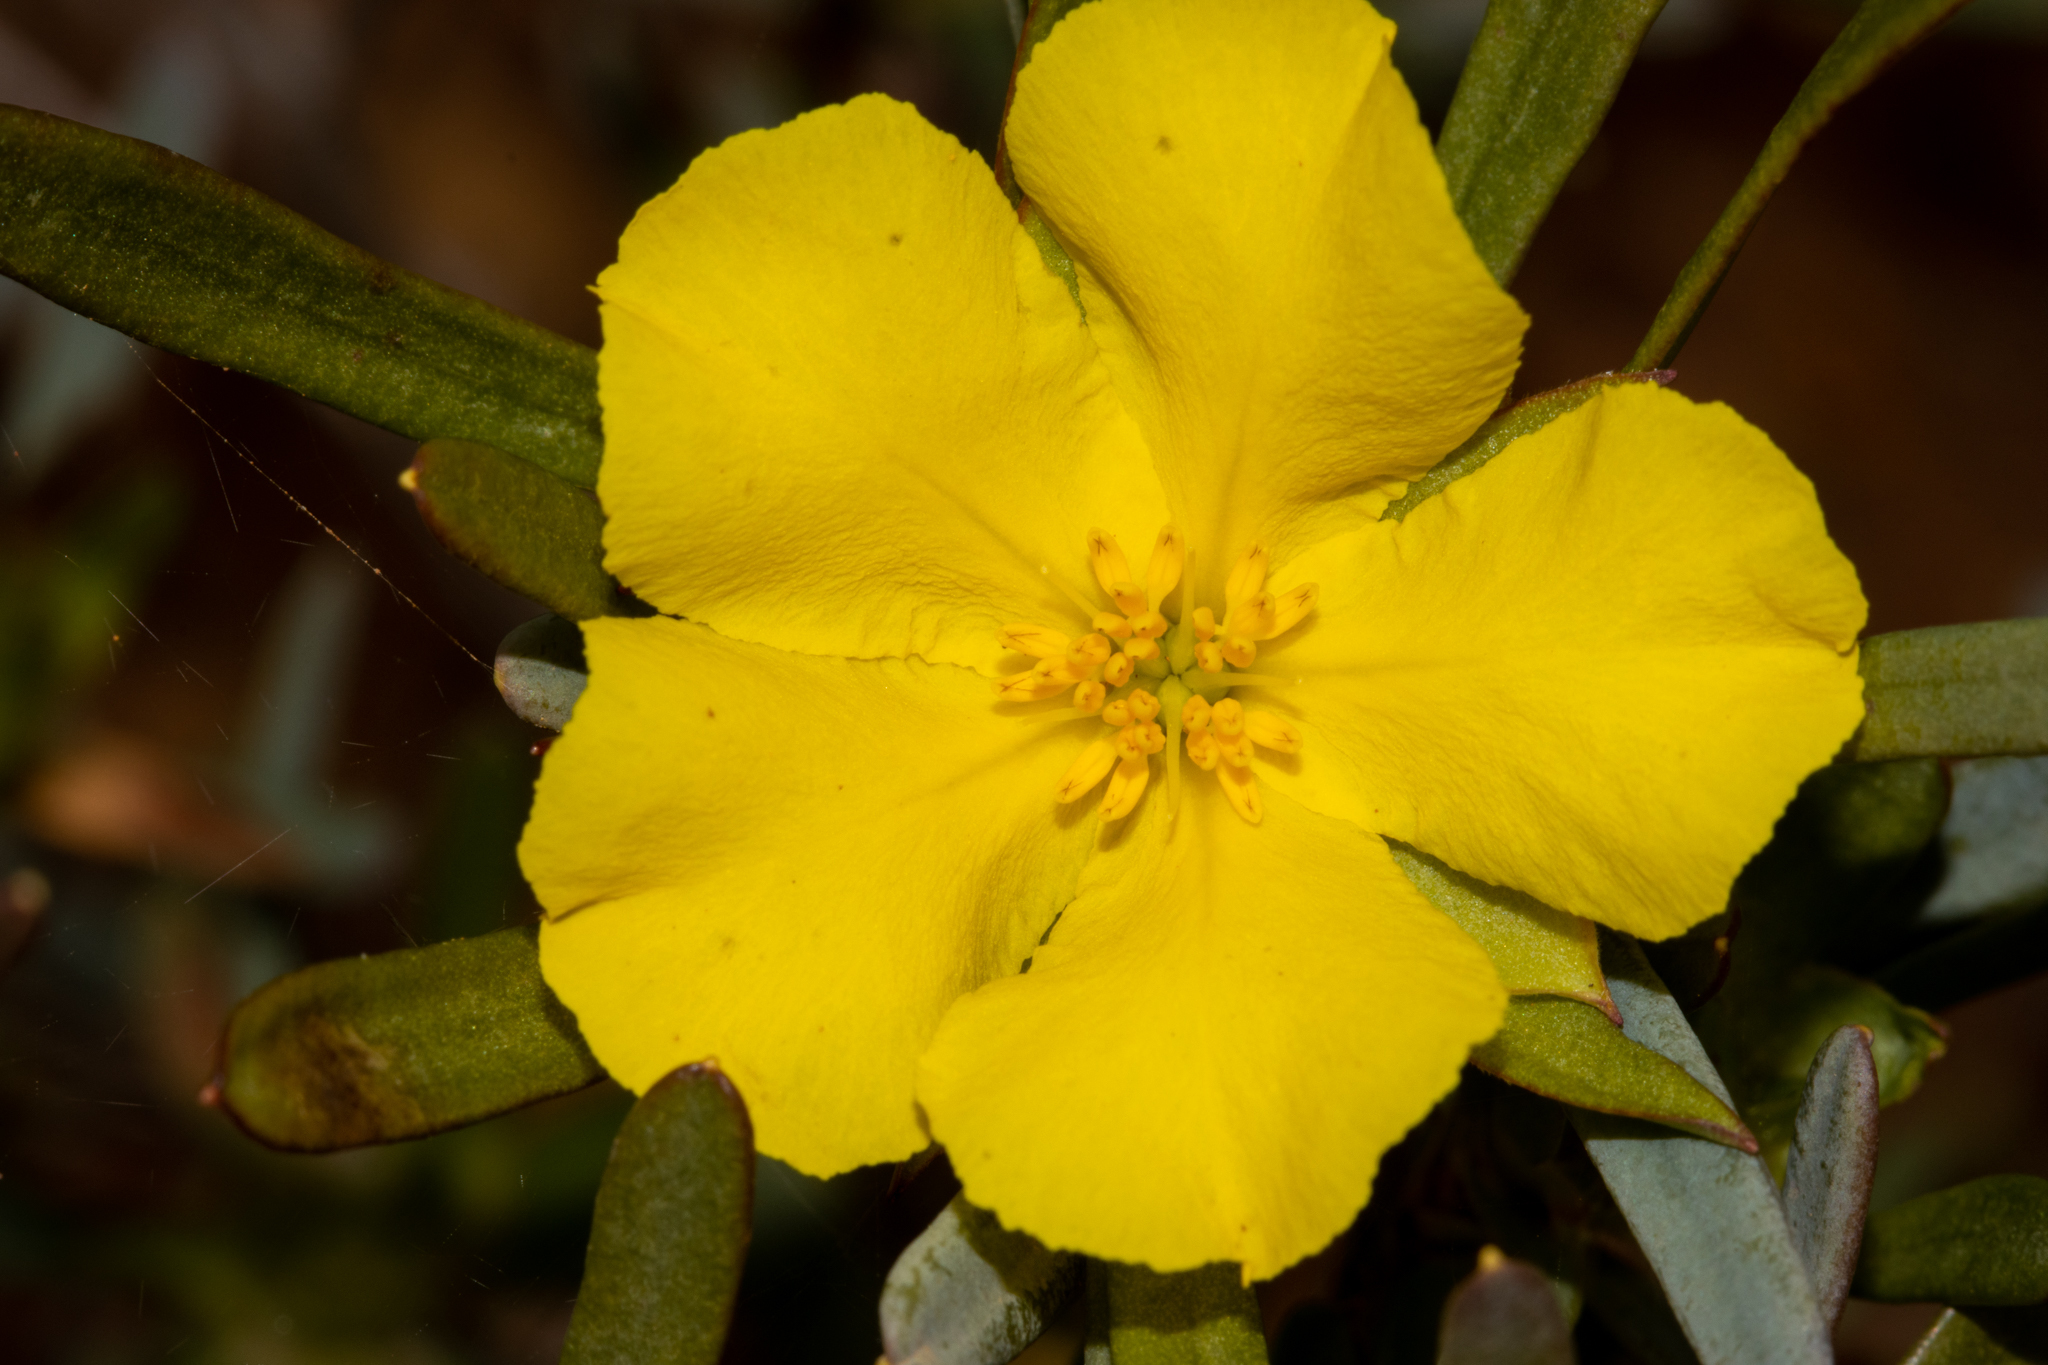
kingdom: Plantae
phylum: Tracheophyta
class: Magnoliopsida
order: Dilleniales
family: Dilleniaceae
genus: Hibbertia
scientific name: Hibbertia glomerosa
